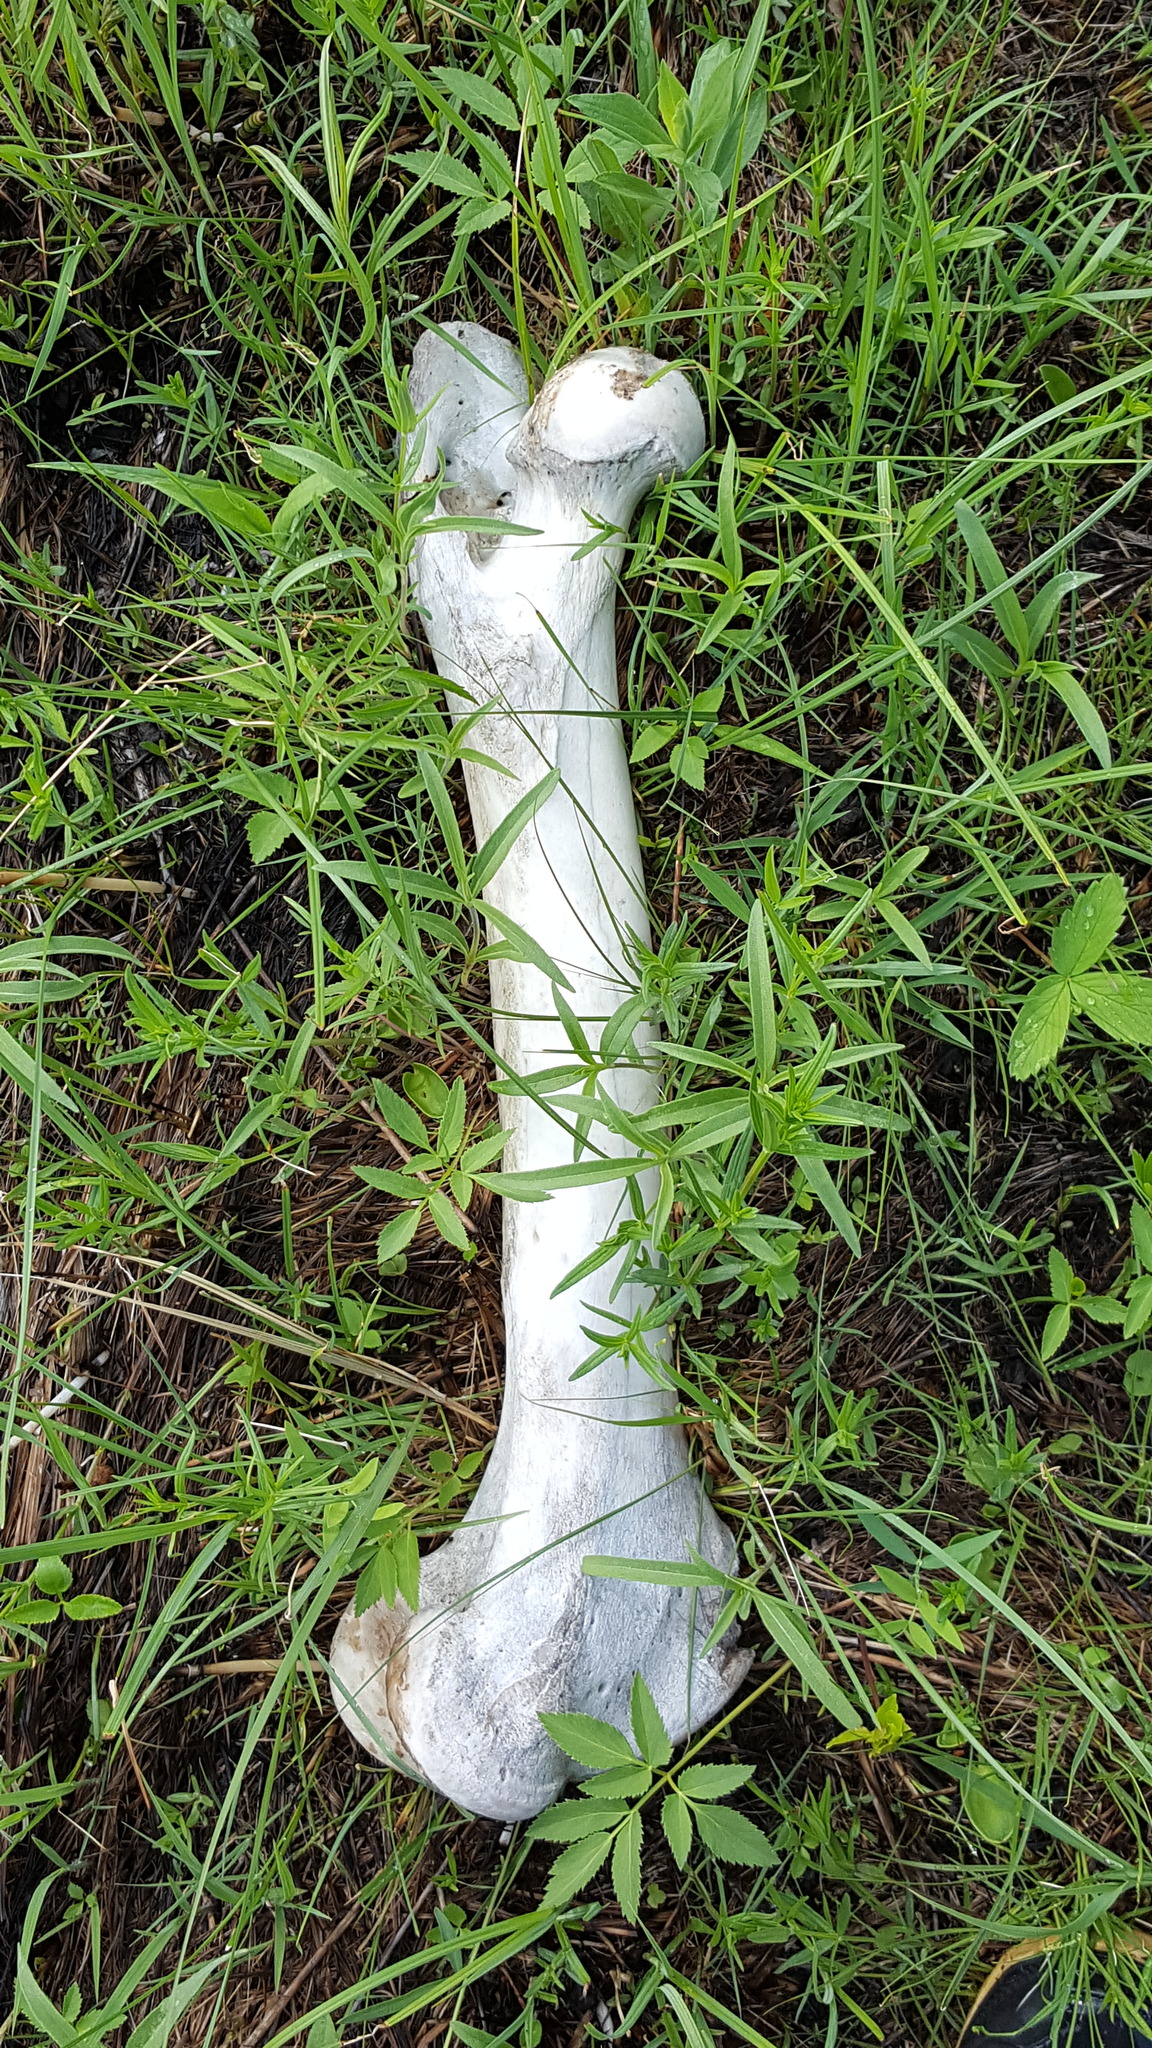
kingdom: Animalia
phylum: Chordata
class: Mammalia
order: Artiodactyla
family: Cervidae
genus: Alces
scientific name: Alces alces
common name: Moose
